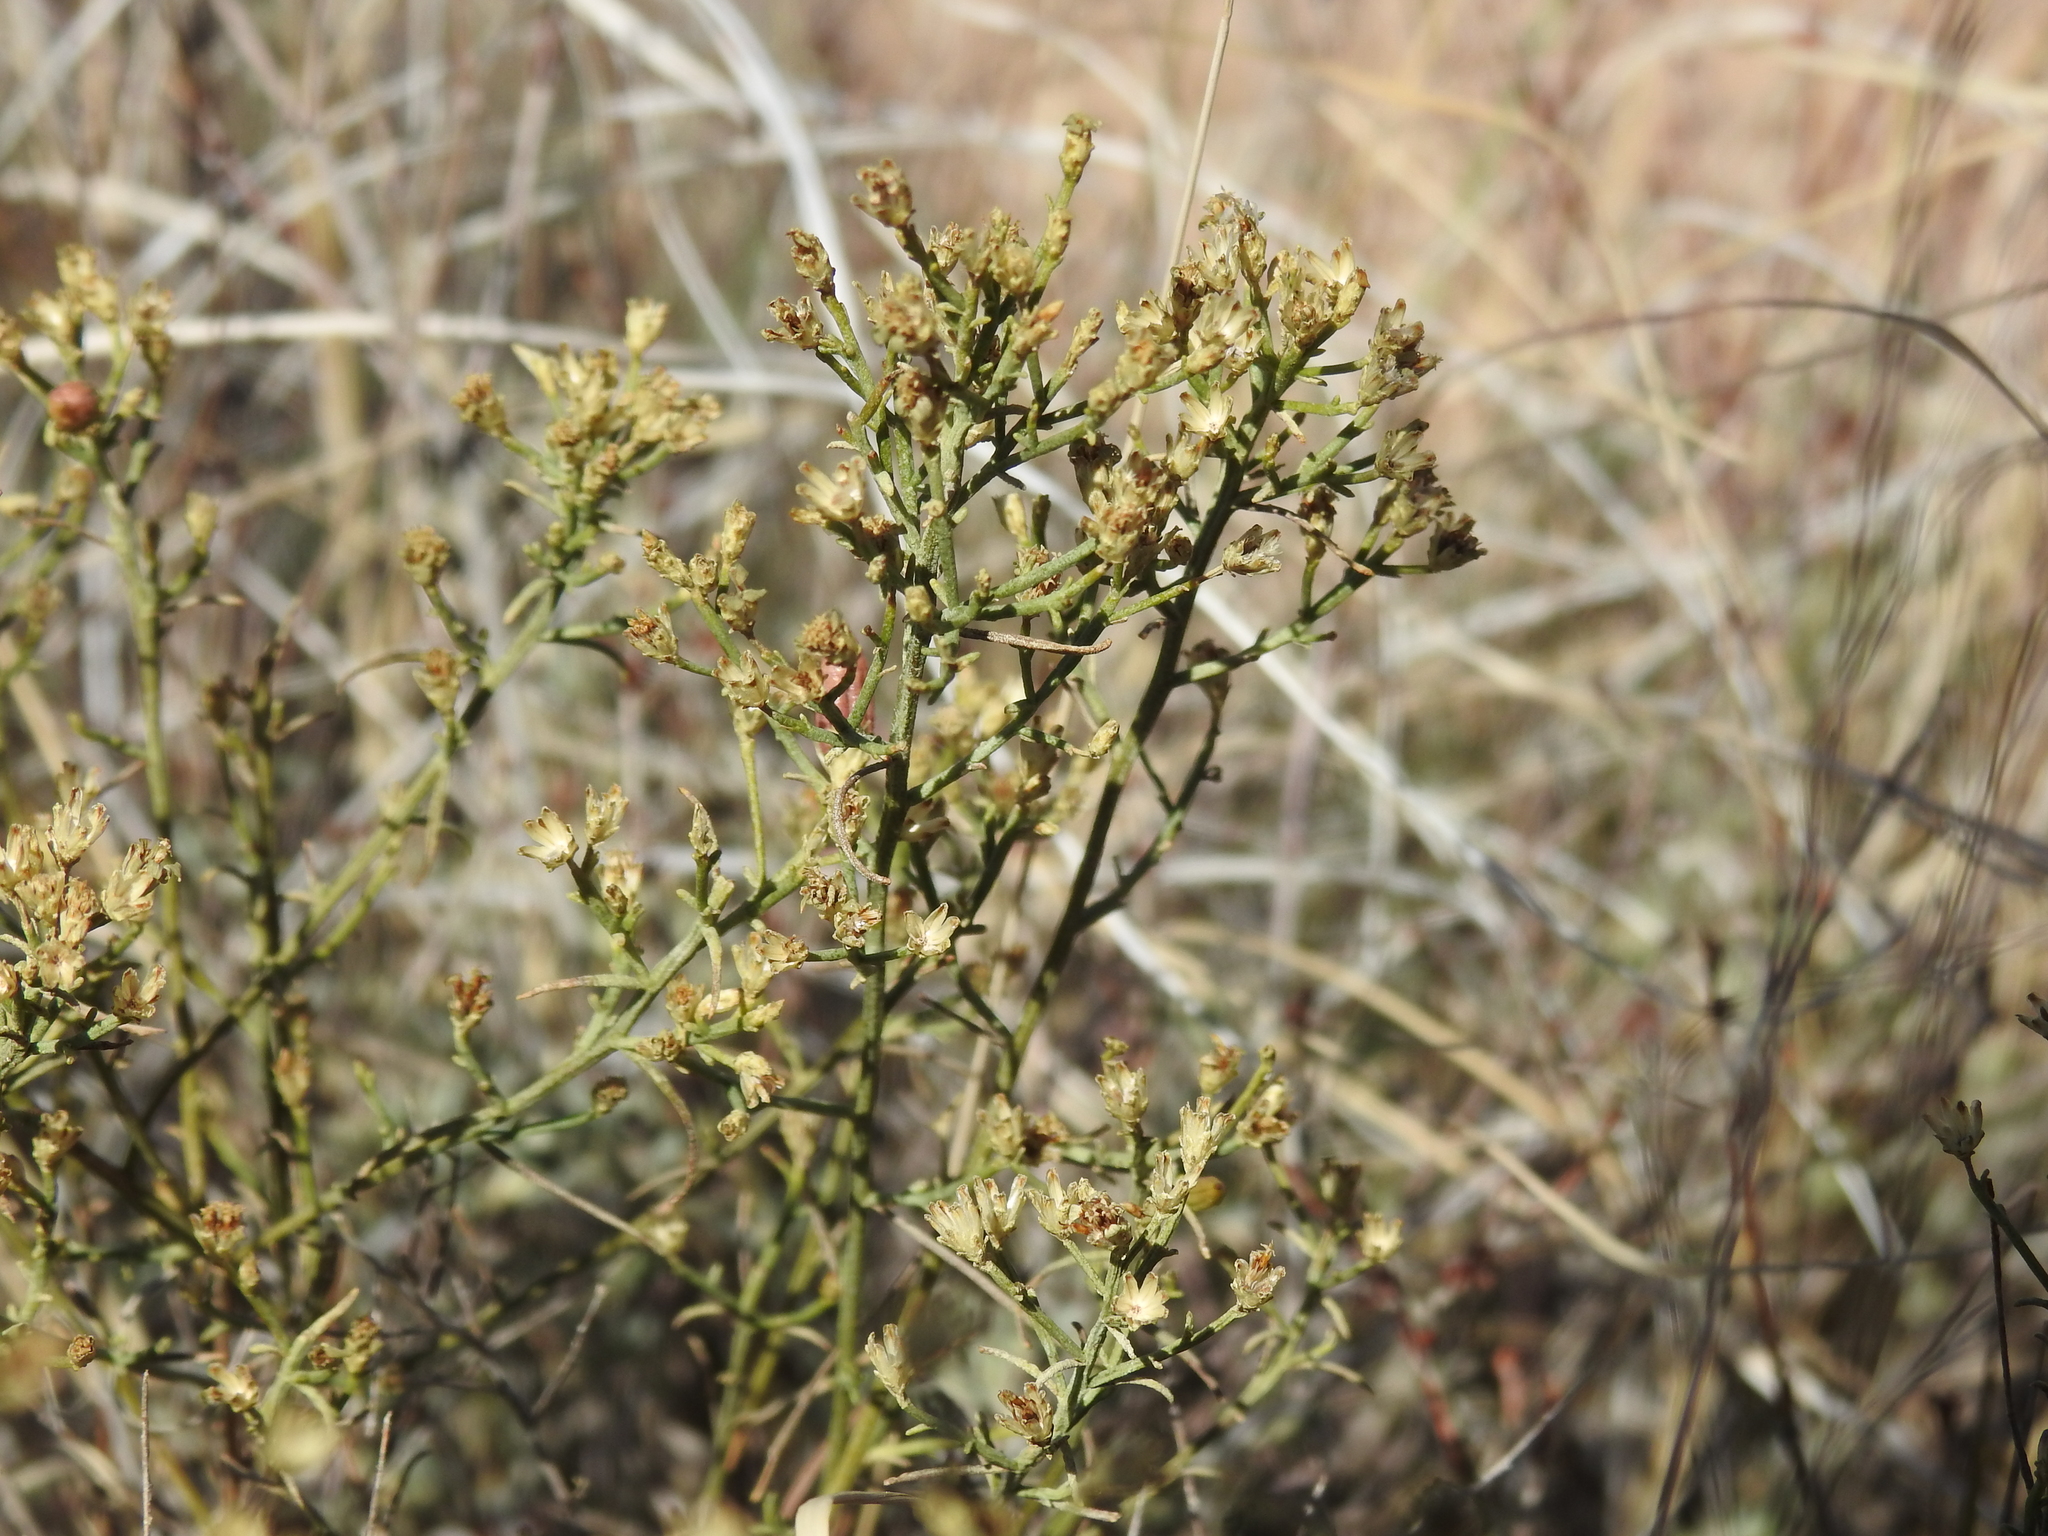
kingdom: Plantae
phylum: Tracheophyta
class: Magnoliopsida
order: Asterales
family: Asteraceae
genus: Gutierrezia
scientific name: Gutierrezia sarothrae
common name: Broom snakeweed
